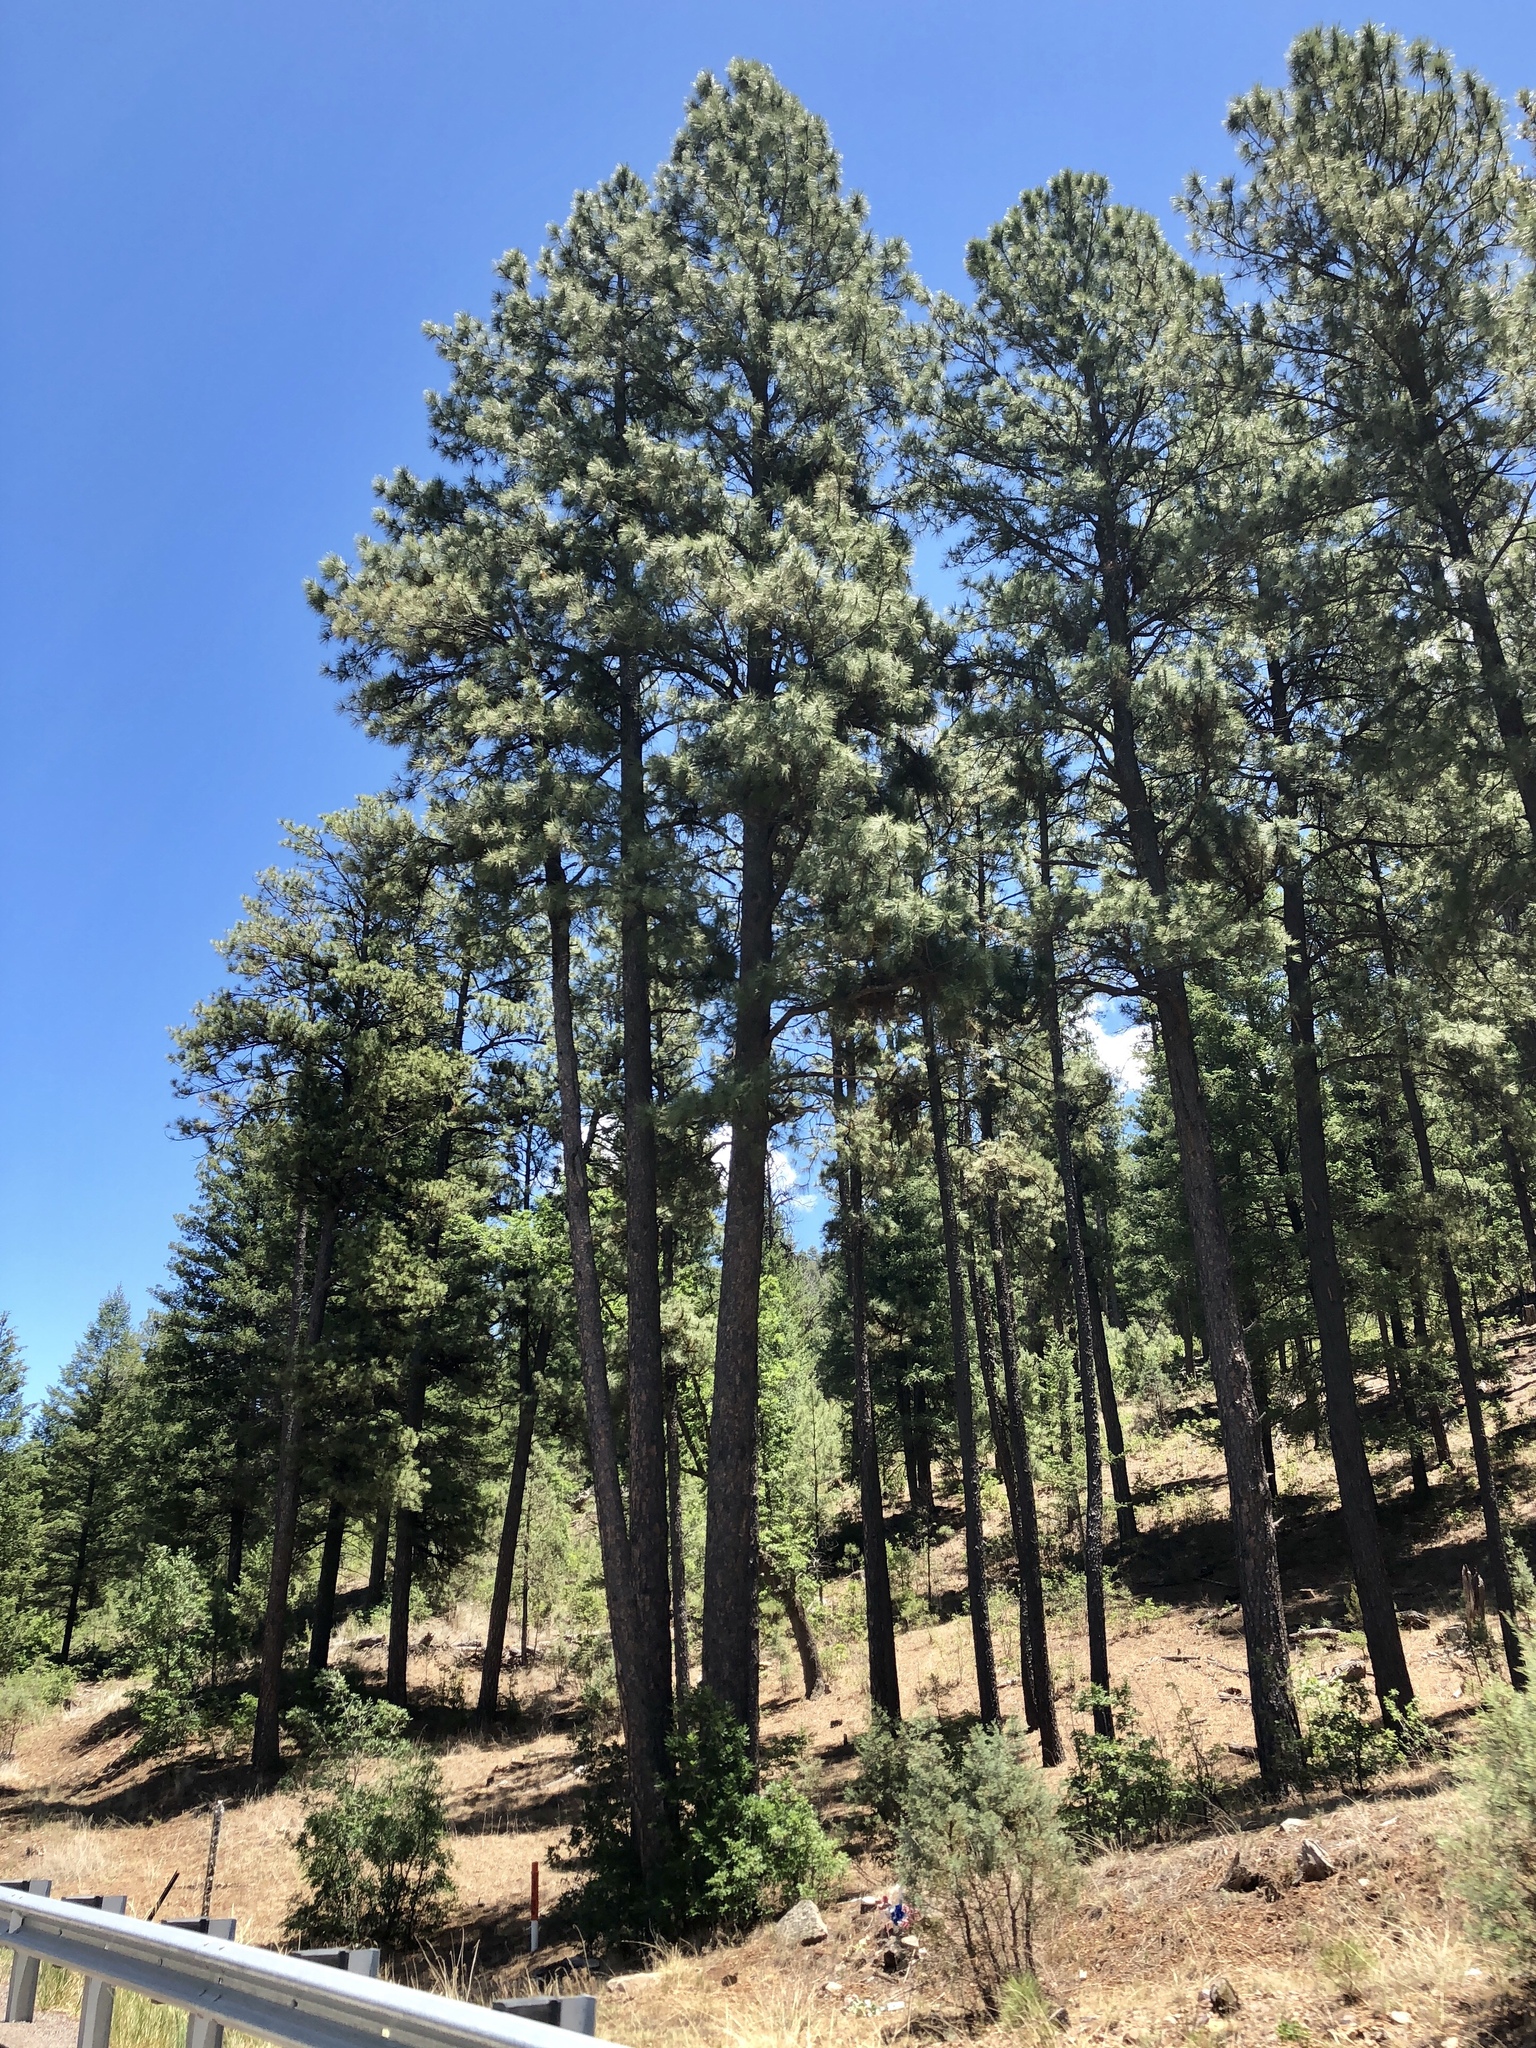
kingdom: Plantae
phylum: Tracheophyta
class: Pinopsida
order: Pinales
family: Pinaceae
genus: Pinus
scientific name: Pinus ponderosa
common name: Western yellow-pine
